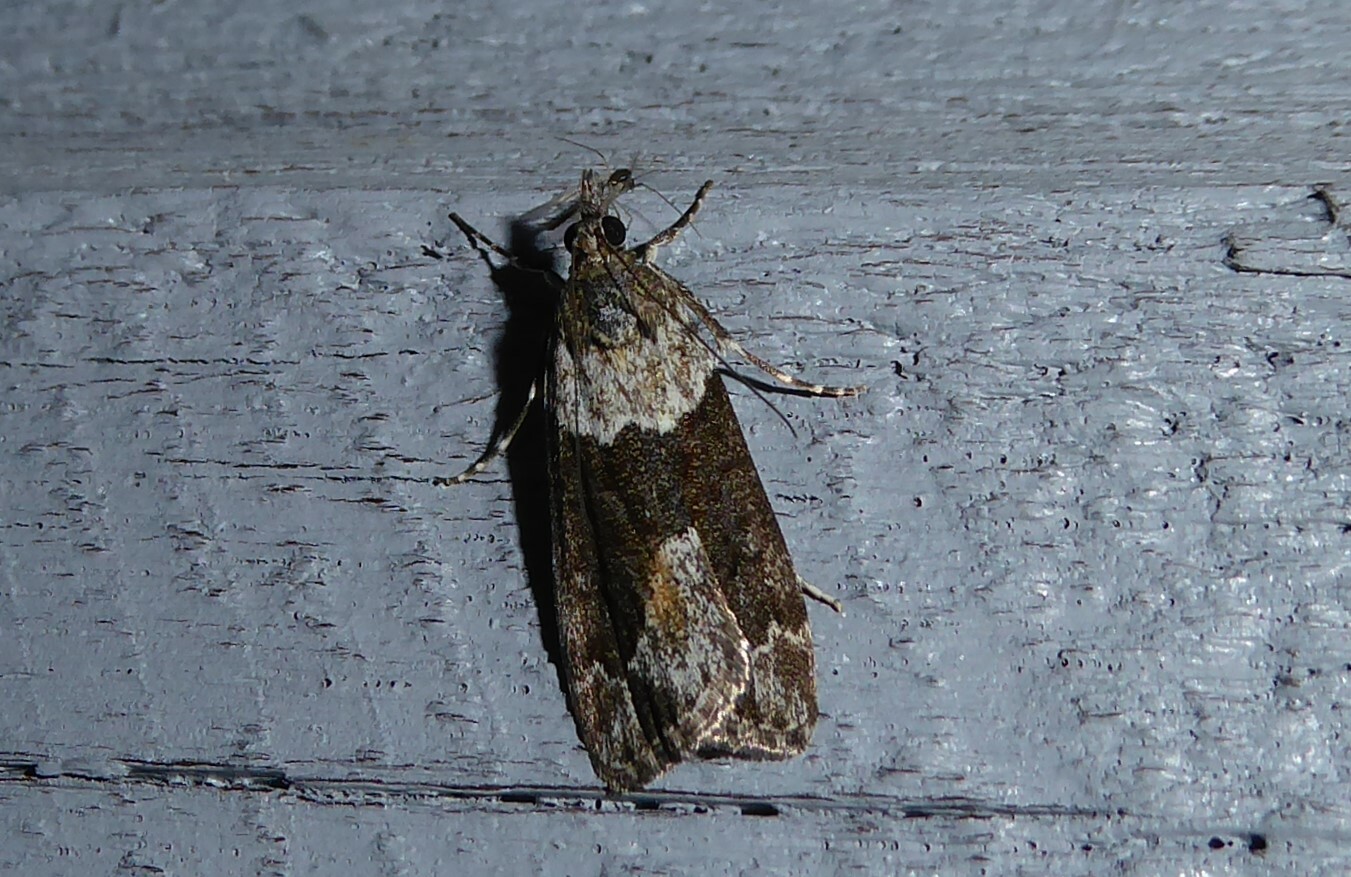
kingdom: Animalia
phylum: Arthropoda
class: Insecta
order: Lepidoptera
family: Crambidae
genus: Eudonia
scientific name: Eudonia submarginalis
